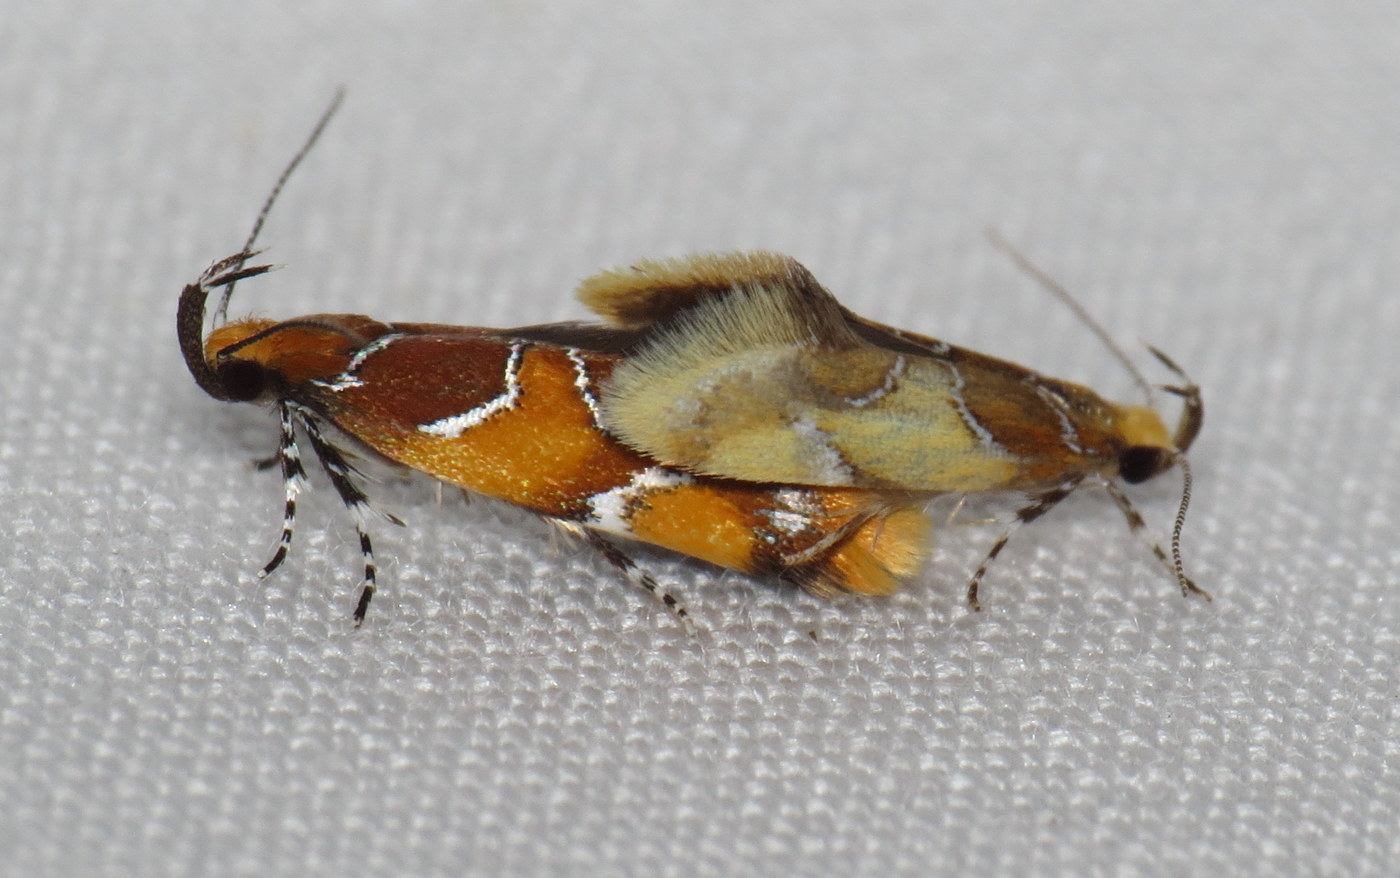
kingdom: Animalia
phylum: Arthropoda
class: Insecta
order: Lepidoptera
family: Oecophoridae
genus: Callima
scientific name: Callima argenticinctella
